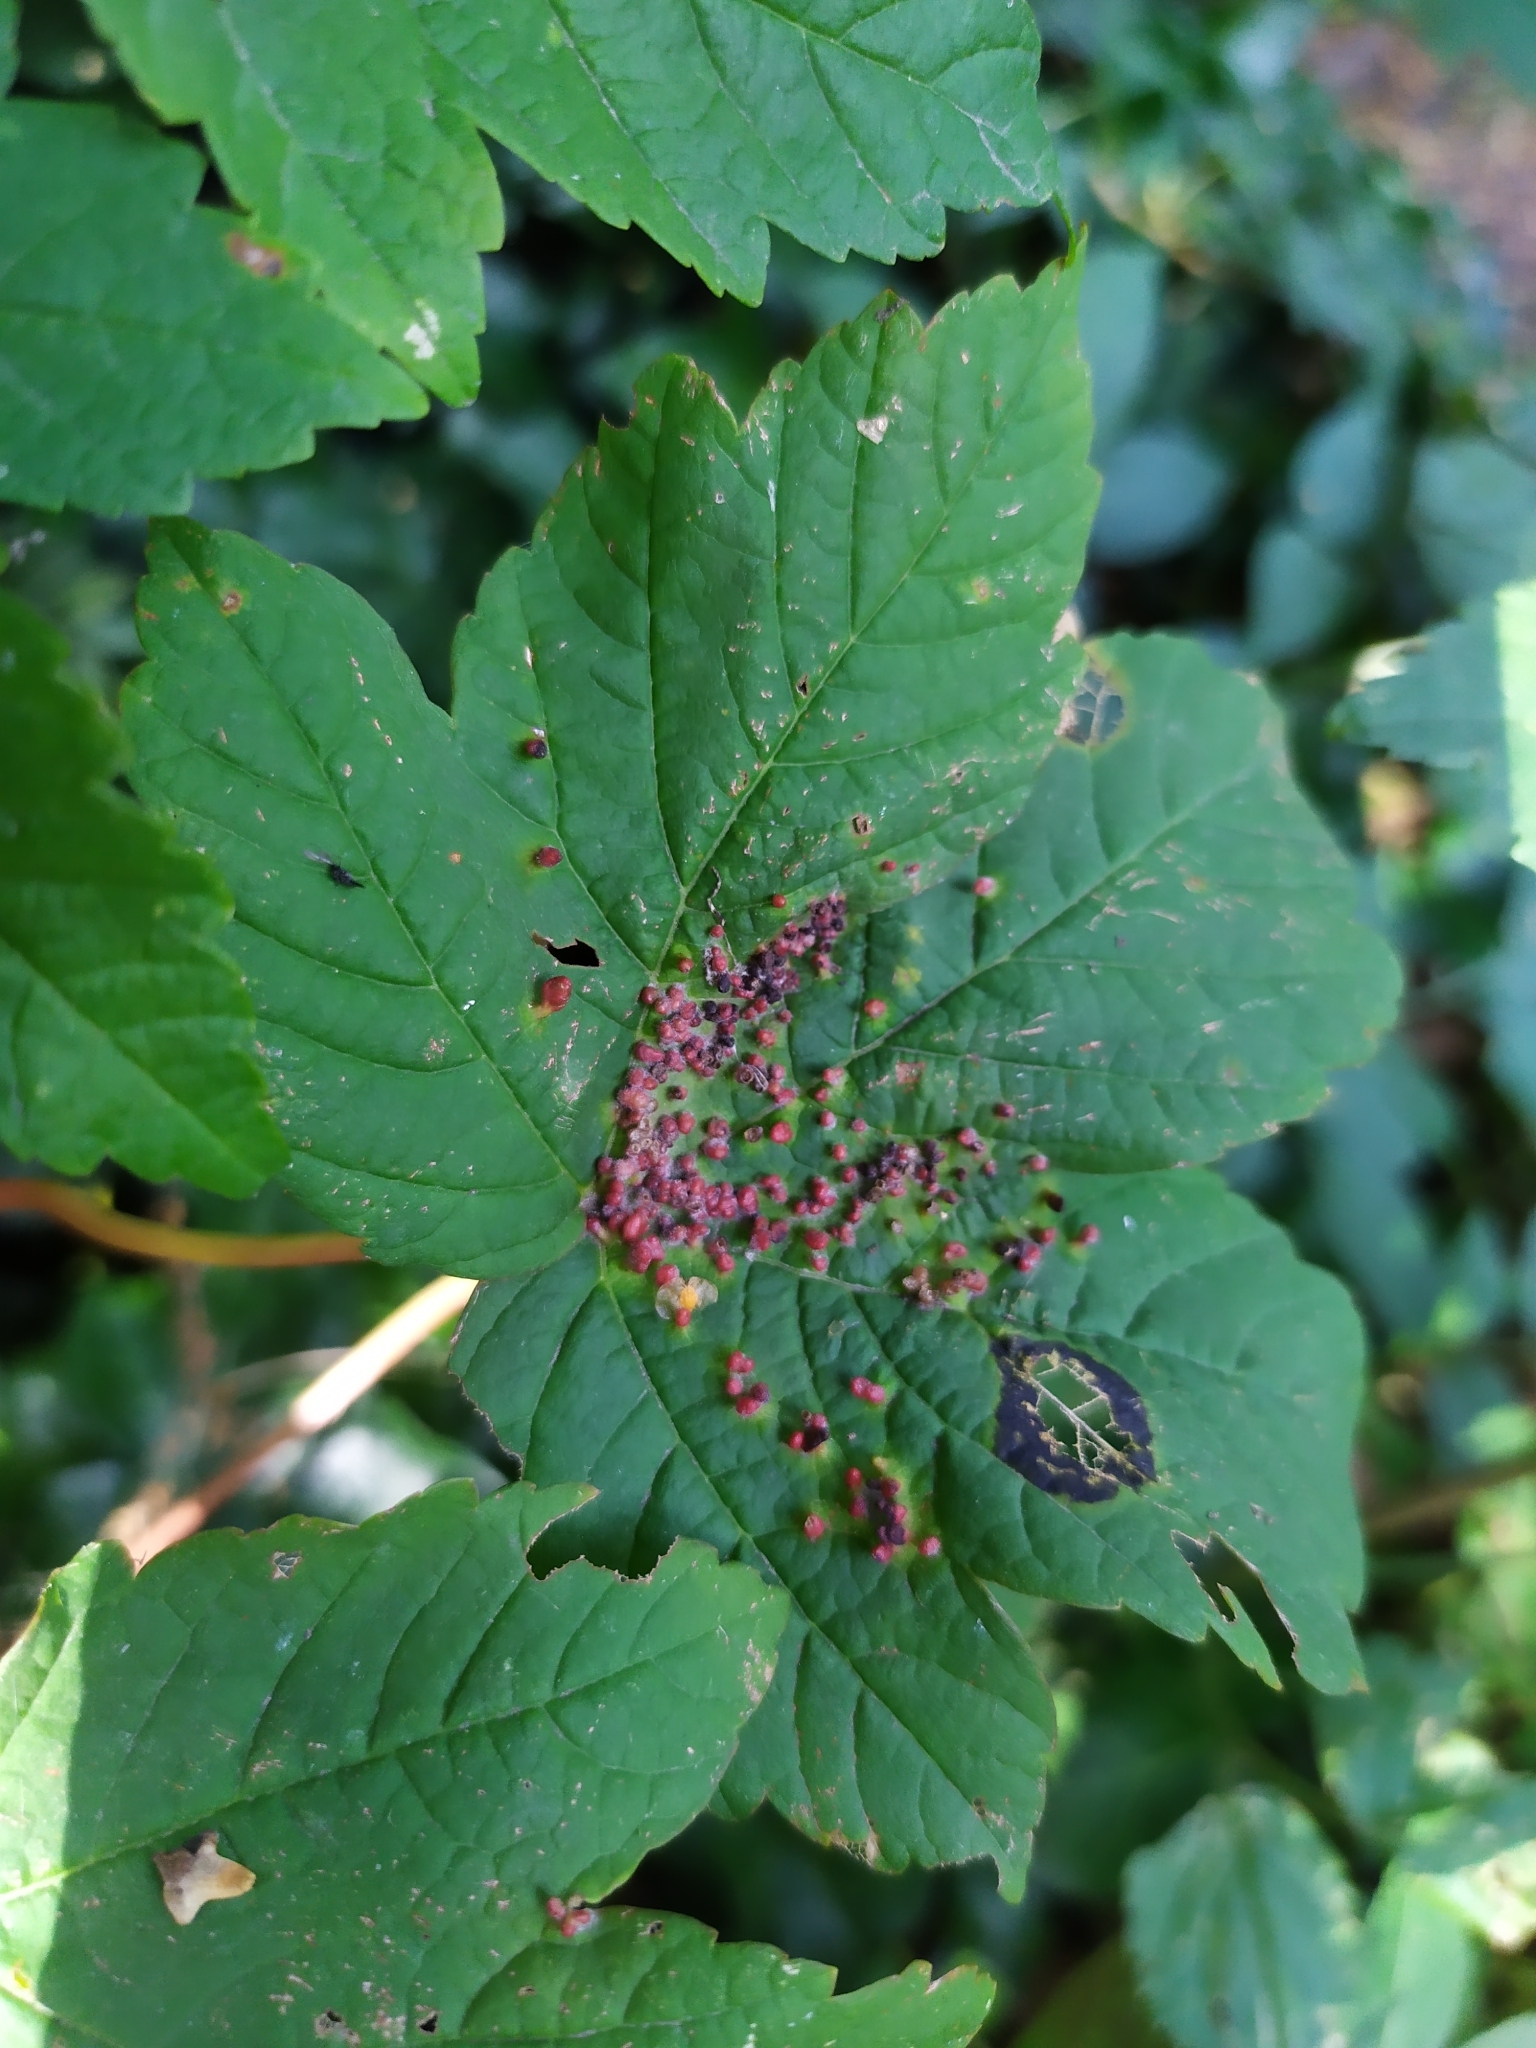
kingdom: Animalia
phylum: Arthropoda
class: Arachnida
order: Trombidiformes
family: Eriophyidae
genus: Aceria
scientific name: Aceria cephaloneus
